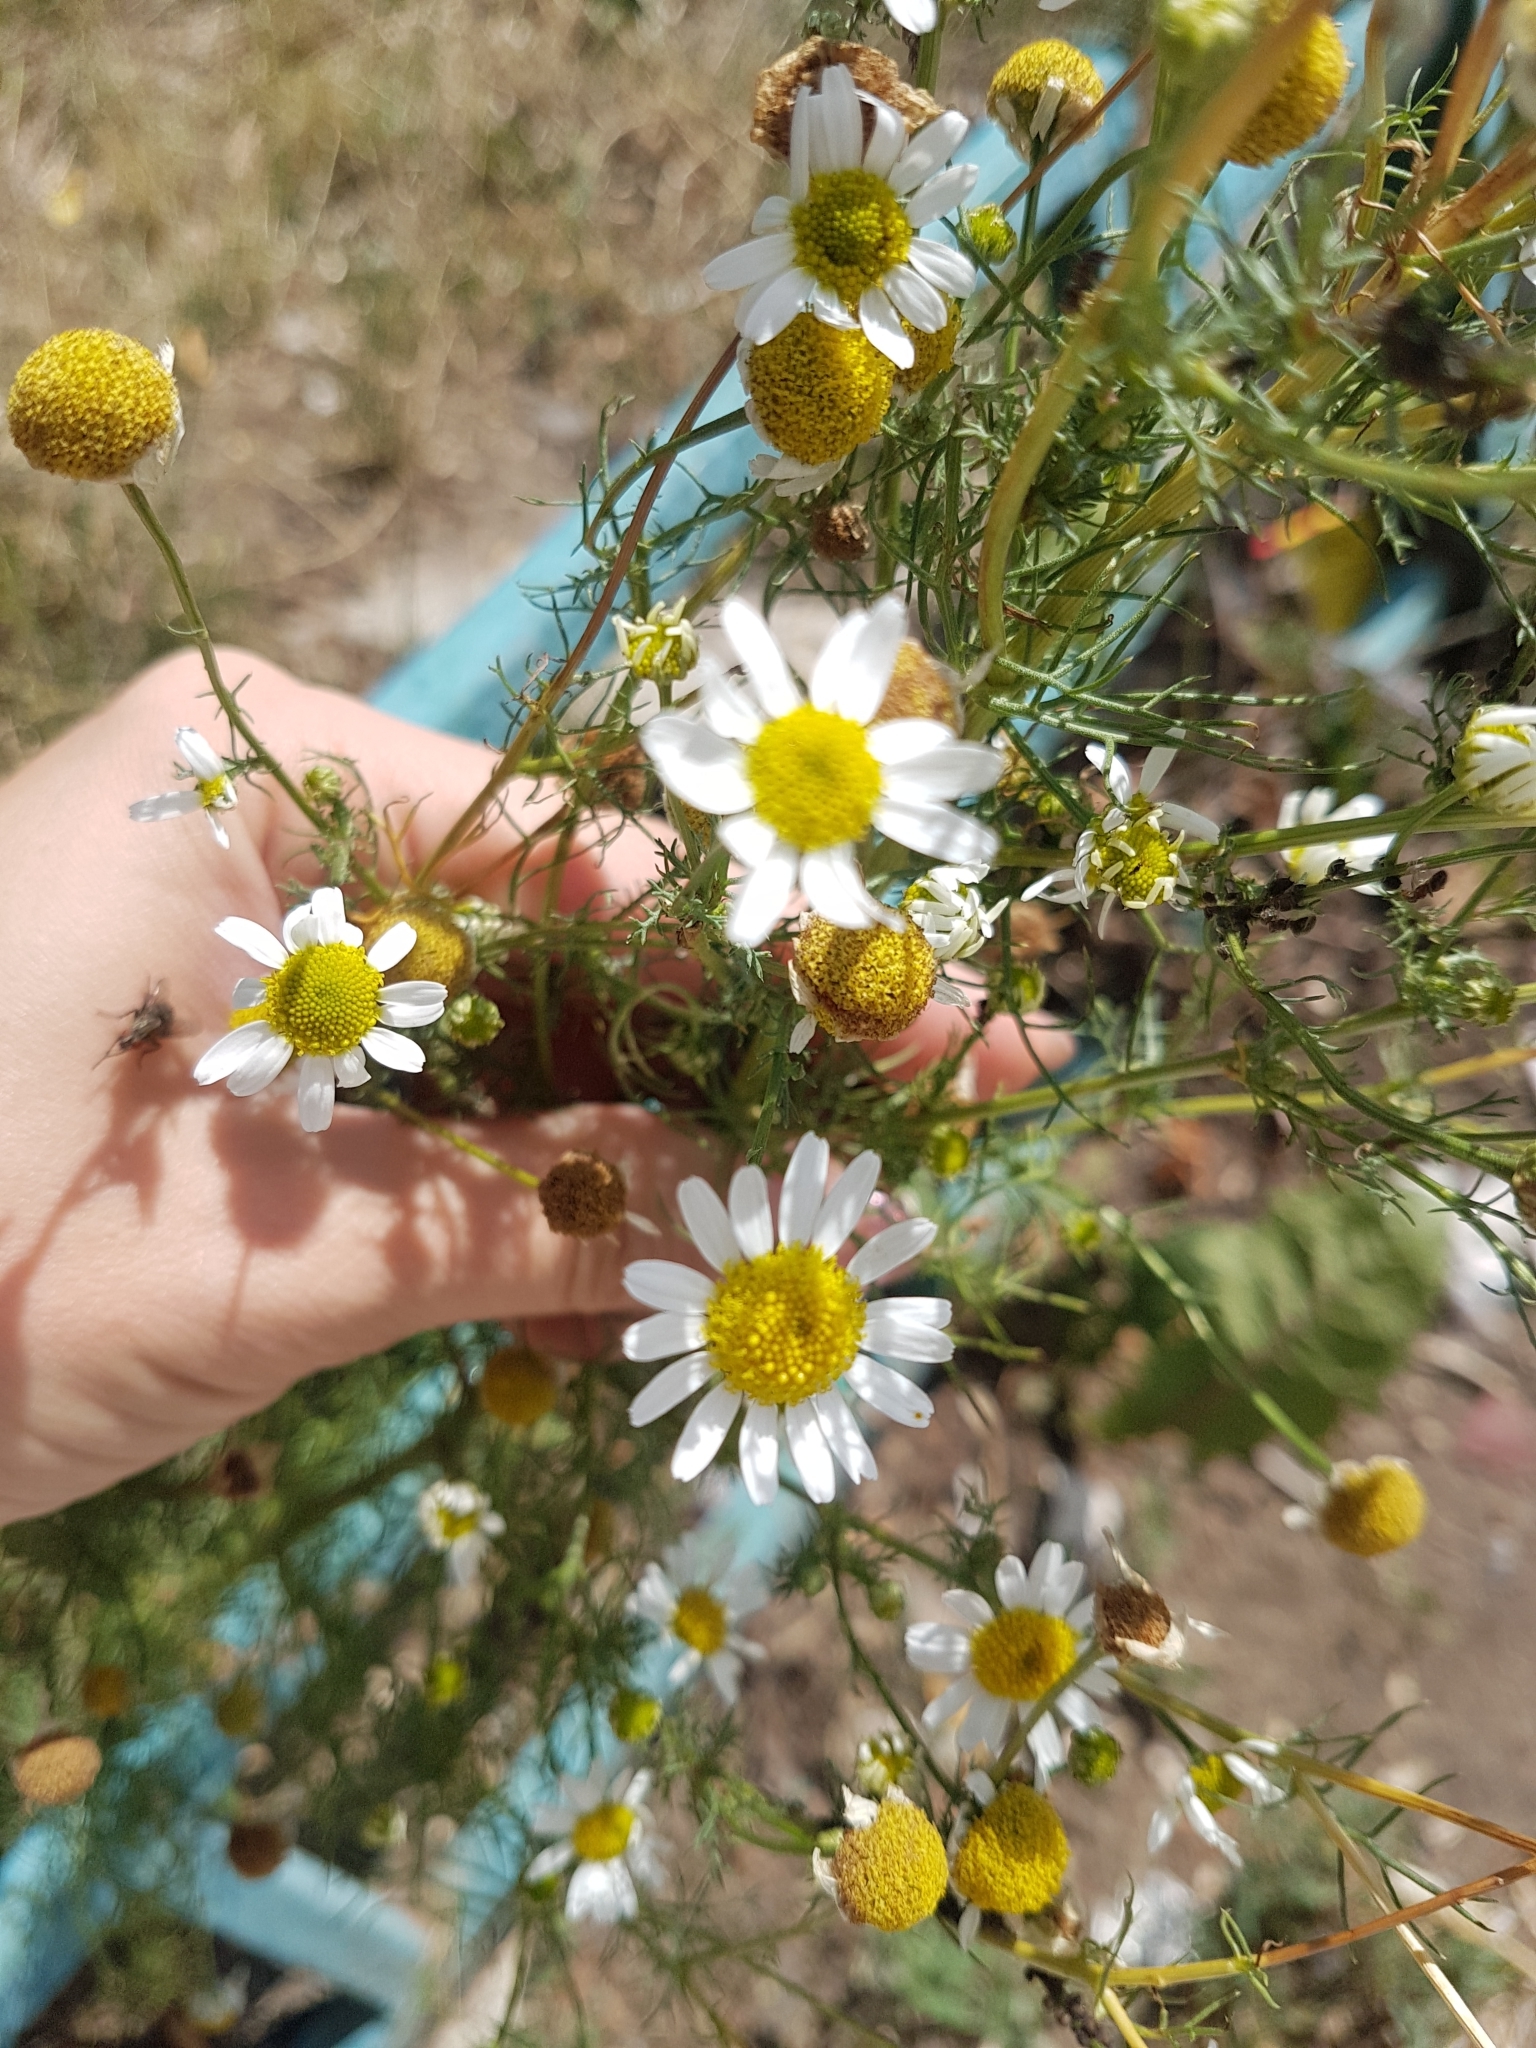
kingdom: Plantae
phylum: Tracheophyta
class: Magnoliopsida
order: Asterales
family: Asteraceae
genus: Tripleurospermum
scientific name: Tripleurospermum inodorum
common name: Scentless mayweed
